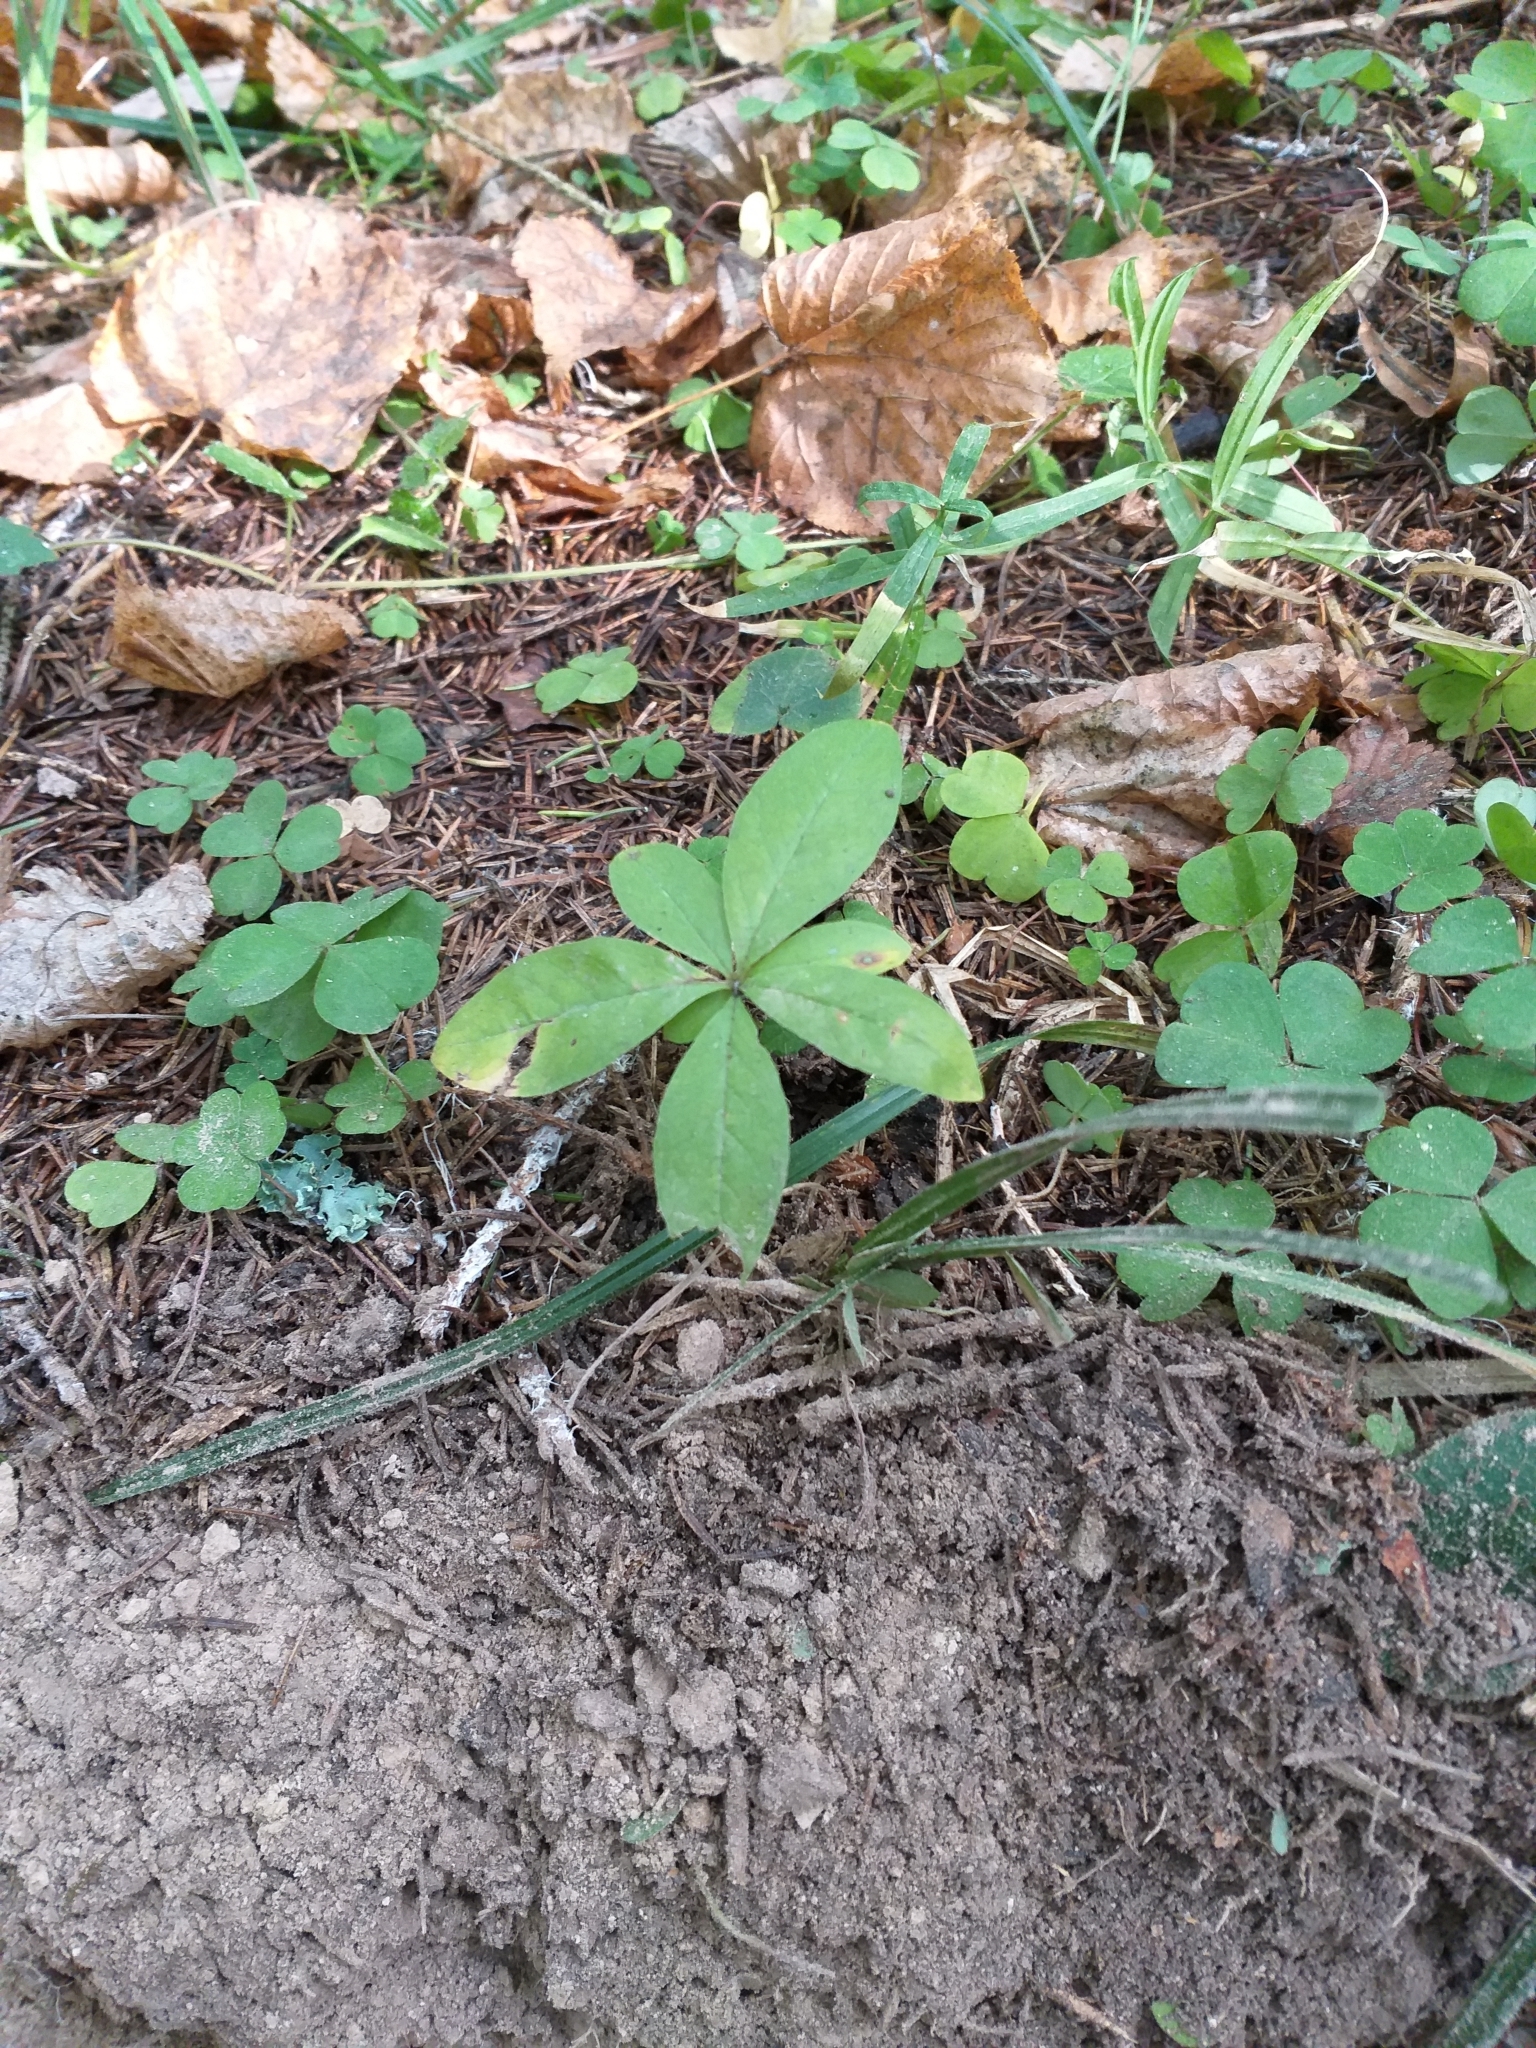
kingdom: Plantae
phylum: Tracheophyta
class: Magnoliopsida
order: Ericales
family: Primulaceae
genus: Lysimachia
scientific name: Lysimachia europaea
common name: Arctic starflower
